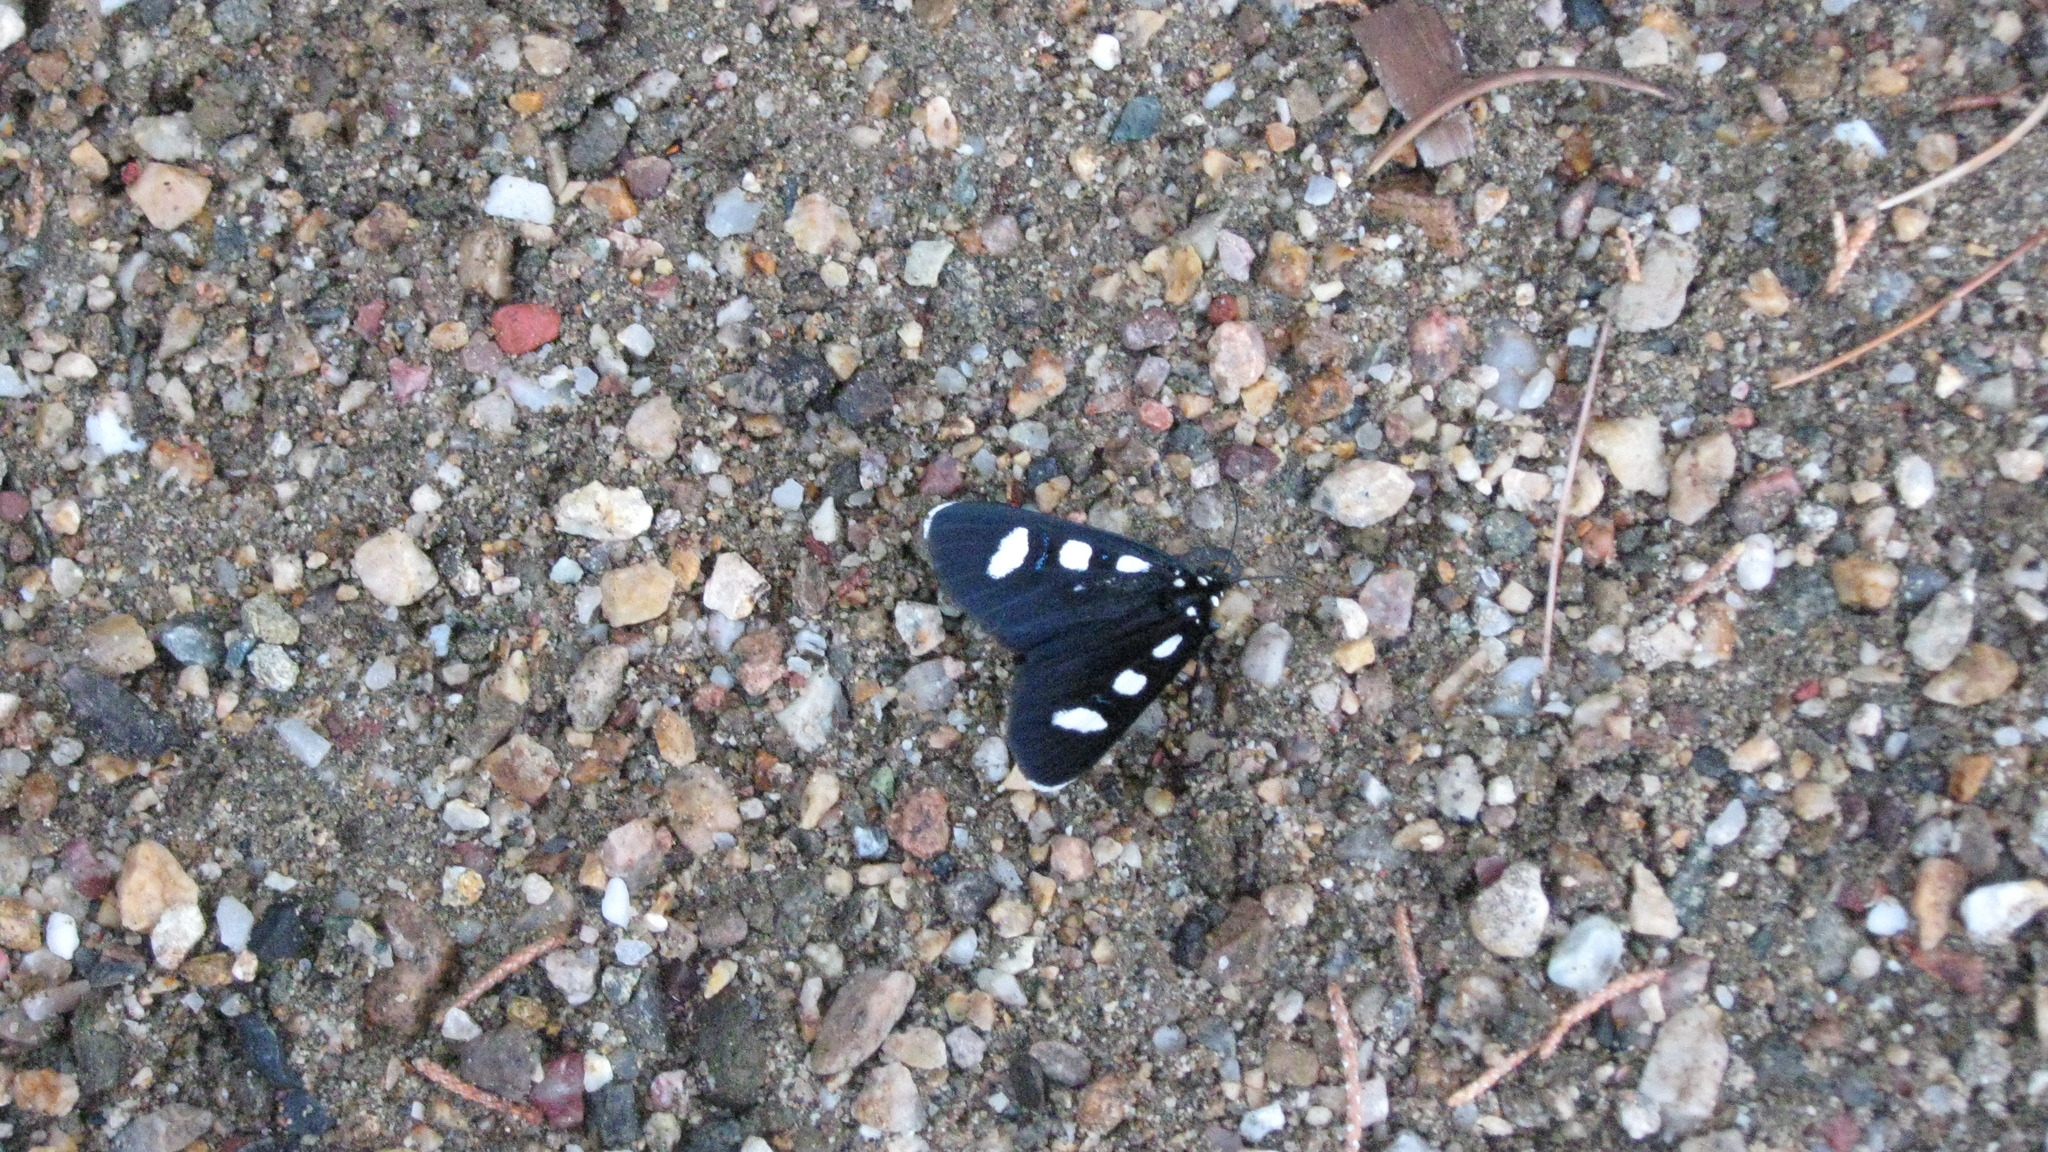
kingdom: Animalia
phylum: Arthropoda
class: Insecta
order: Lepidoptera
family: Noctuidae
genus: Alypiodes
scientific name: Alypiodes bimaculata
